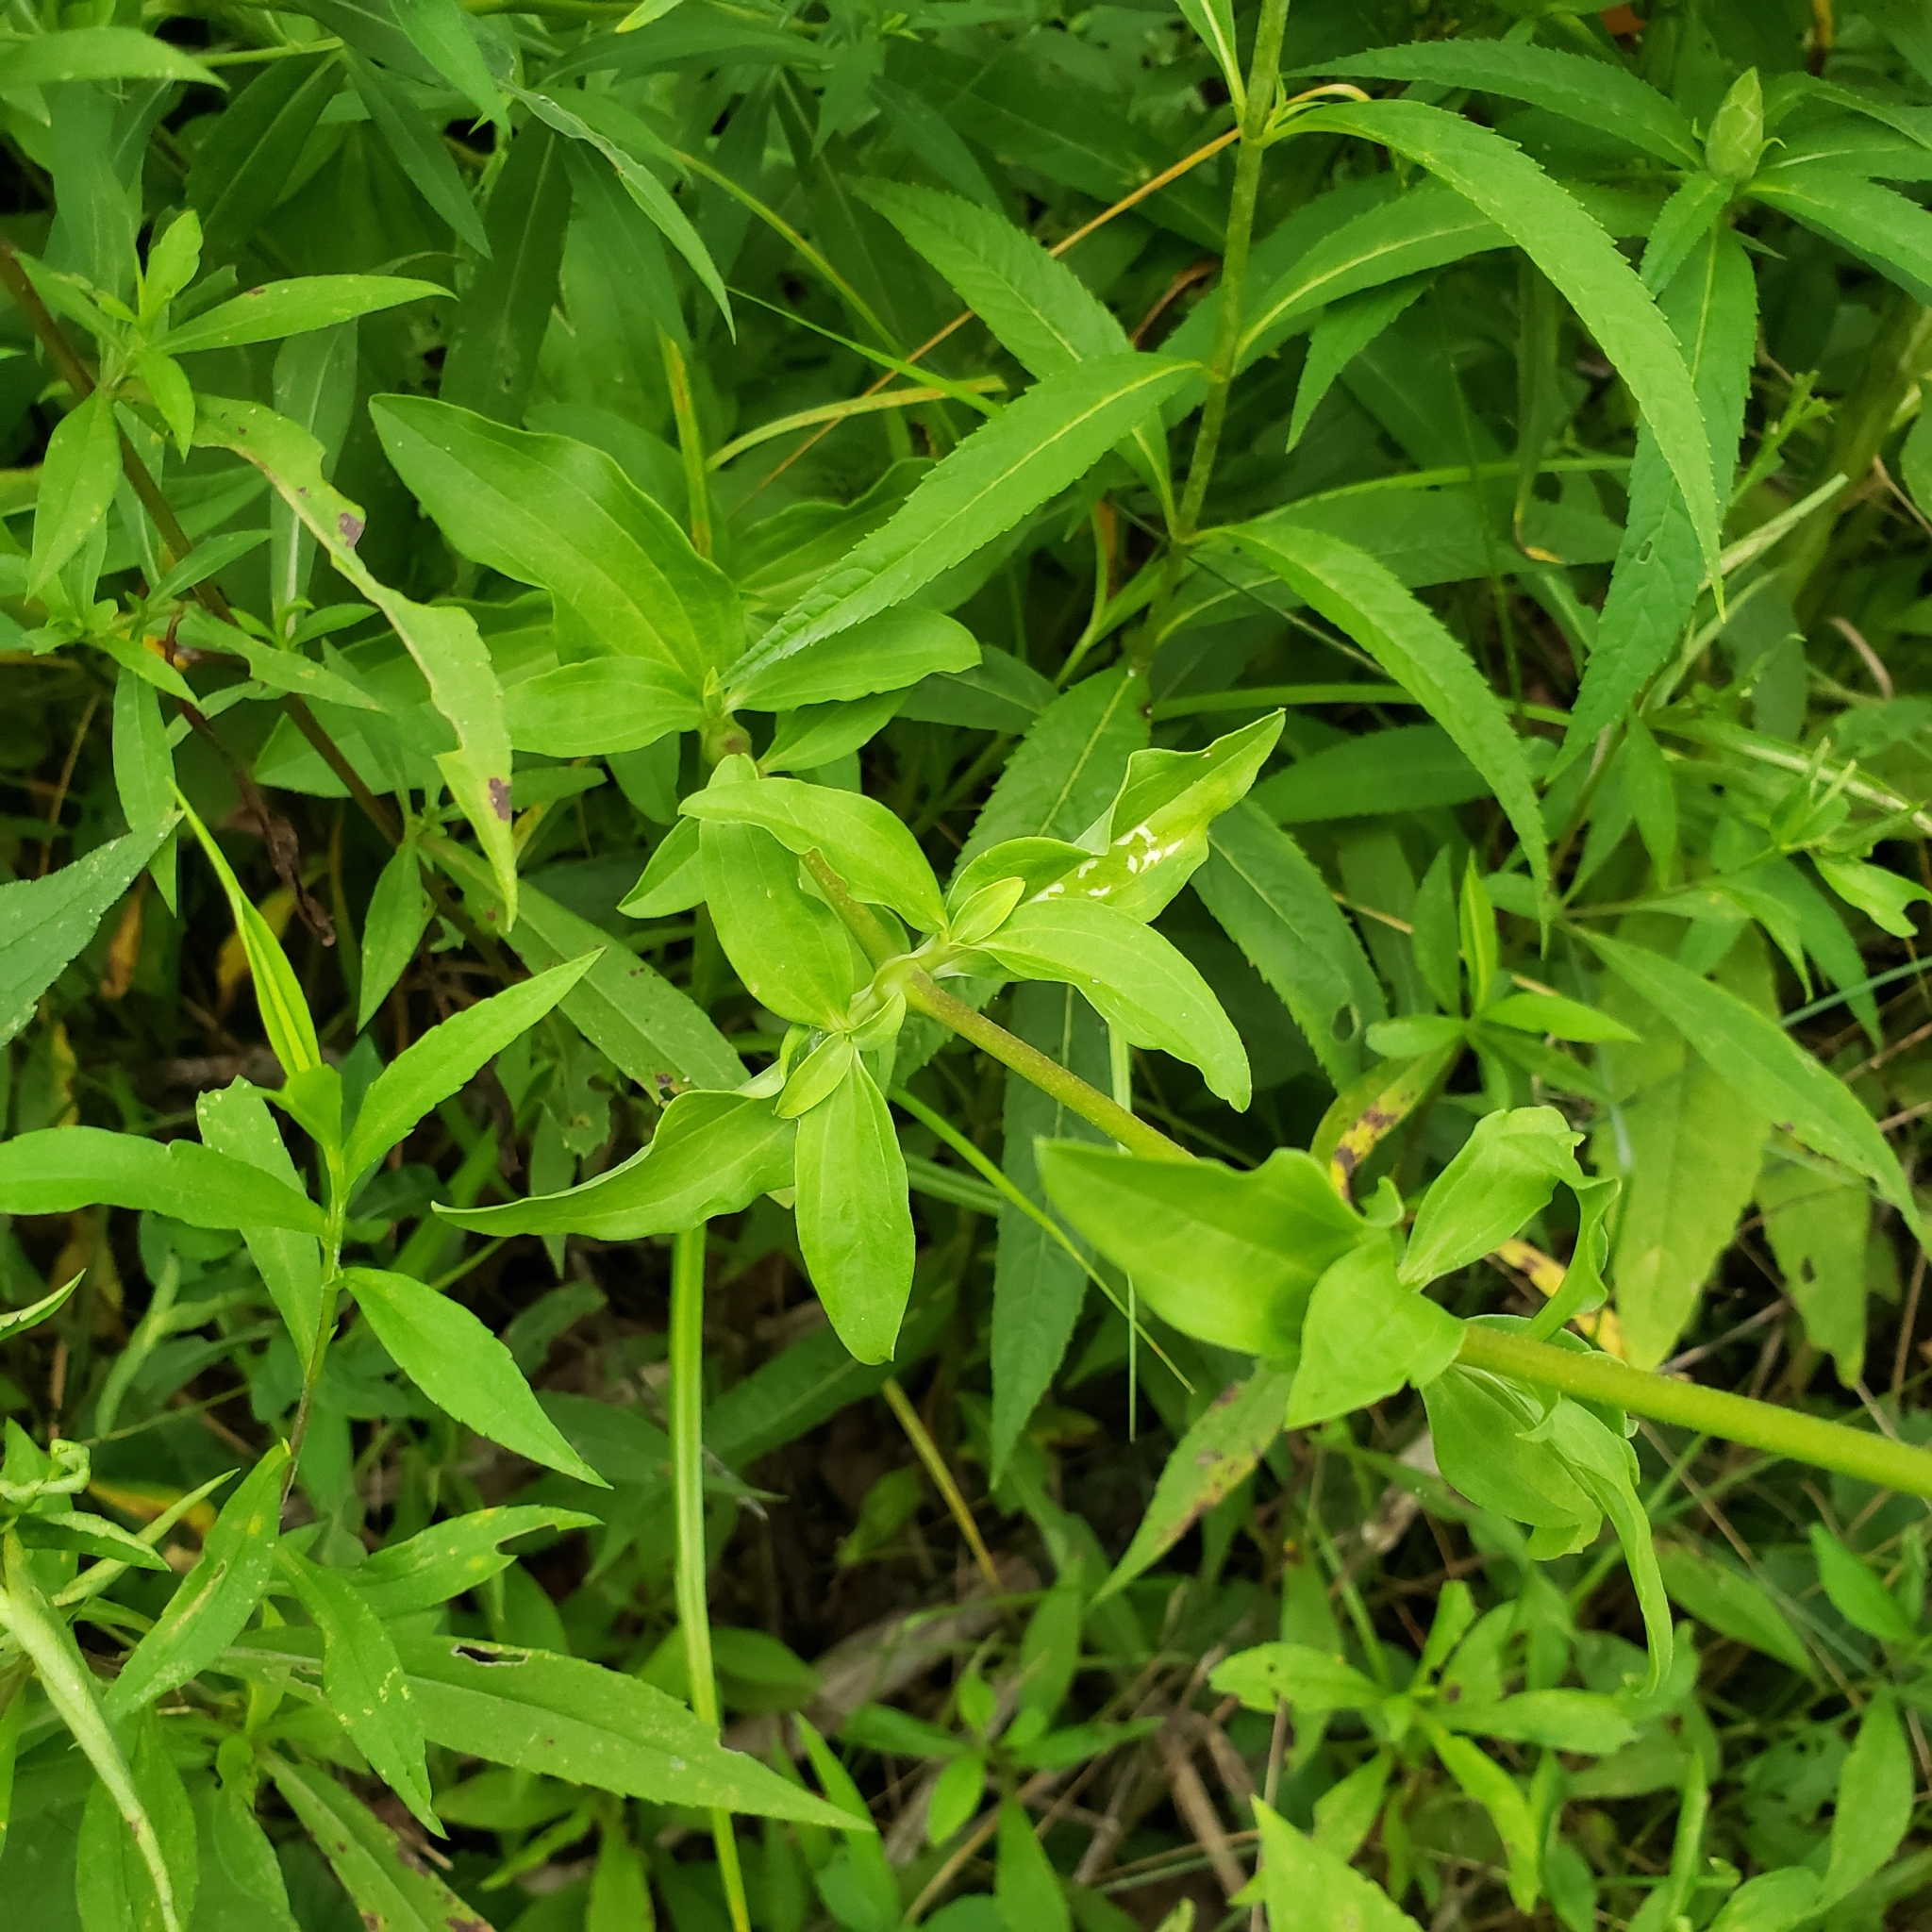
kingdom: Plantae
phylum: Tracheophyta
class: Magnoliopsida
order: Caryophyllales
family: Caryophyllaceae
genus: Saponaria
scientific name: Saponaria officinalis
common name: Soapwort
